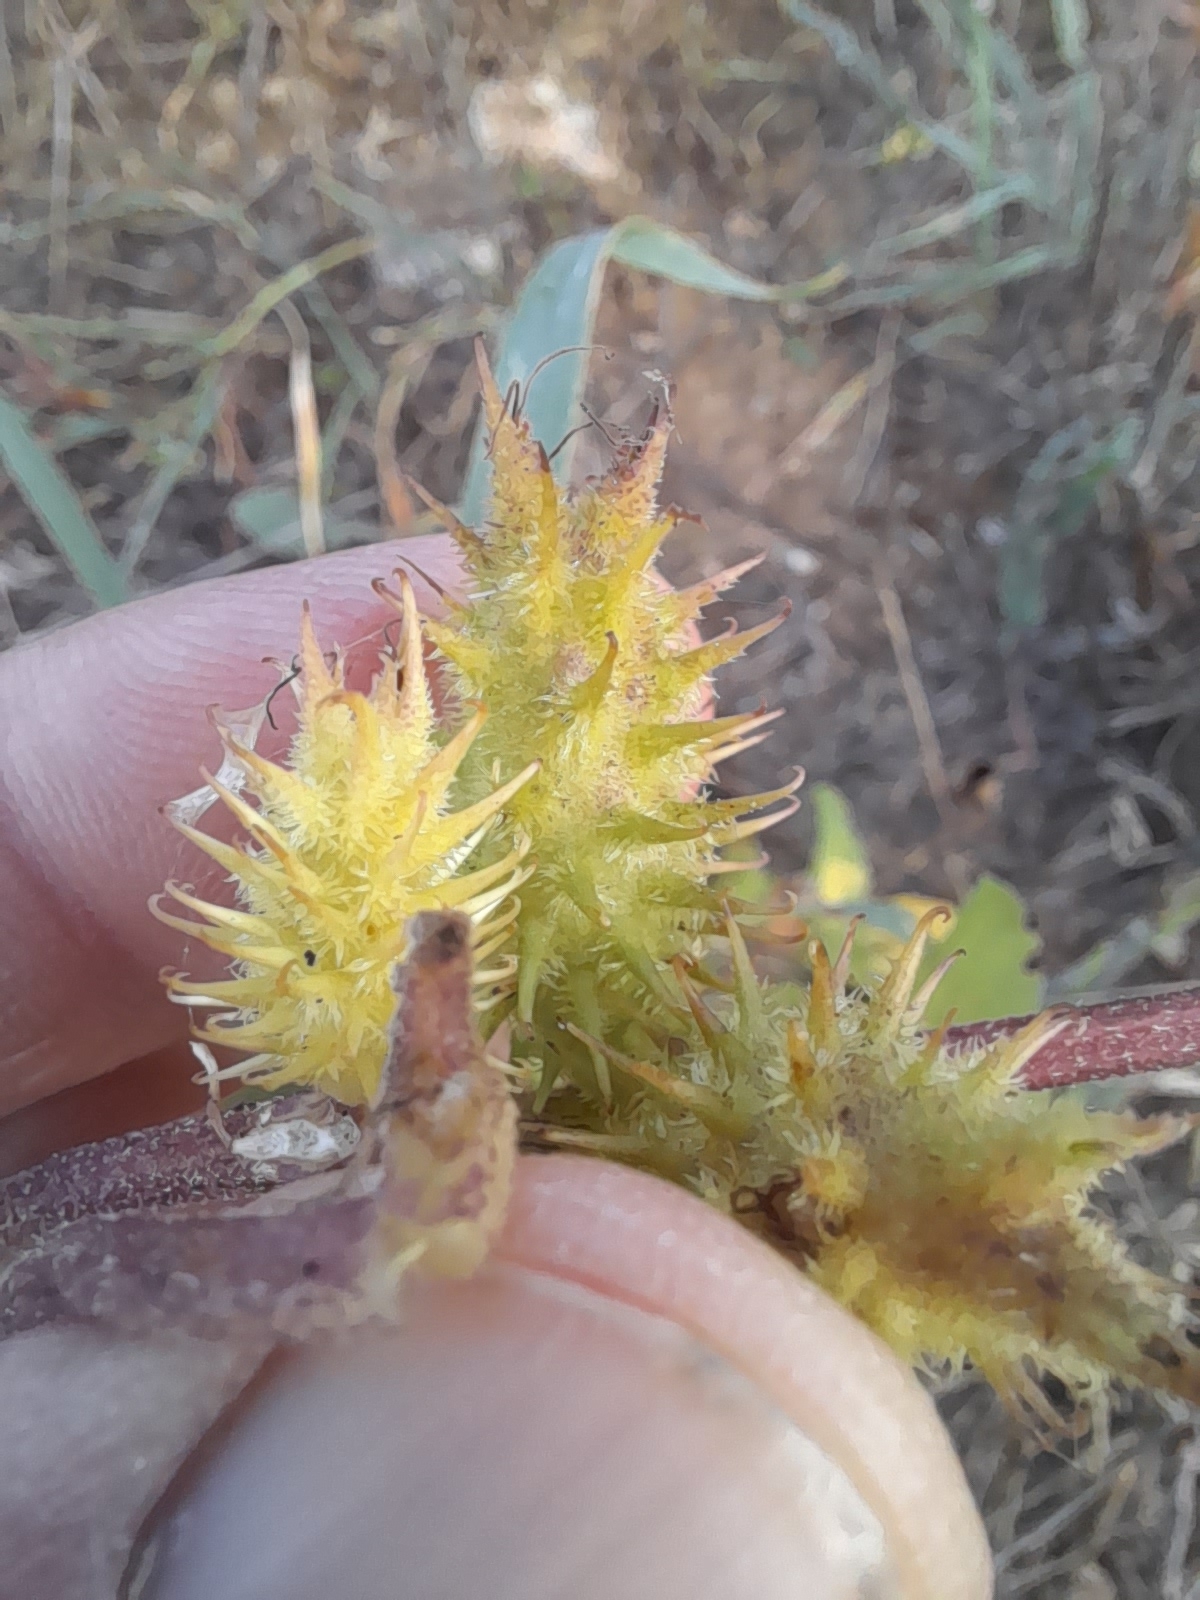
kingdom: Plantae
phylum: Tracheophyta
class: Magnoliopsida
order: Asterales
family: Asteraceae
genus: Xanthium
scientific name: Xanthium orientale
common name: Californian burr
